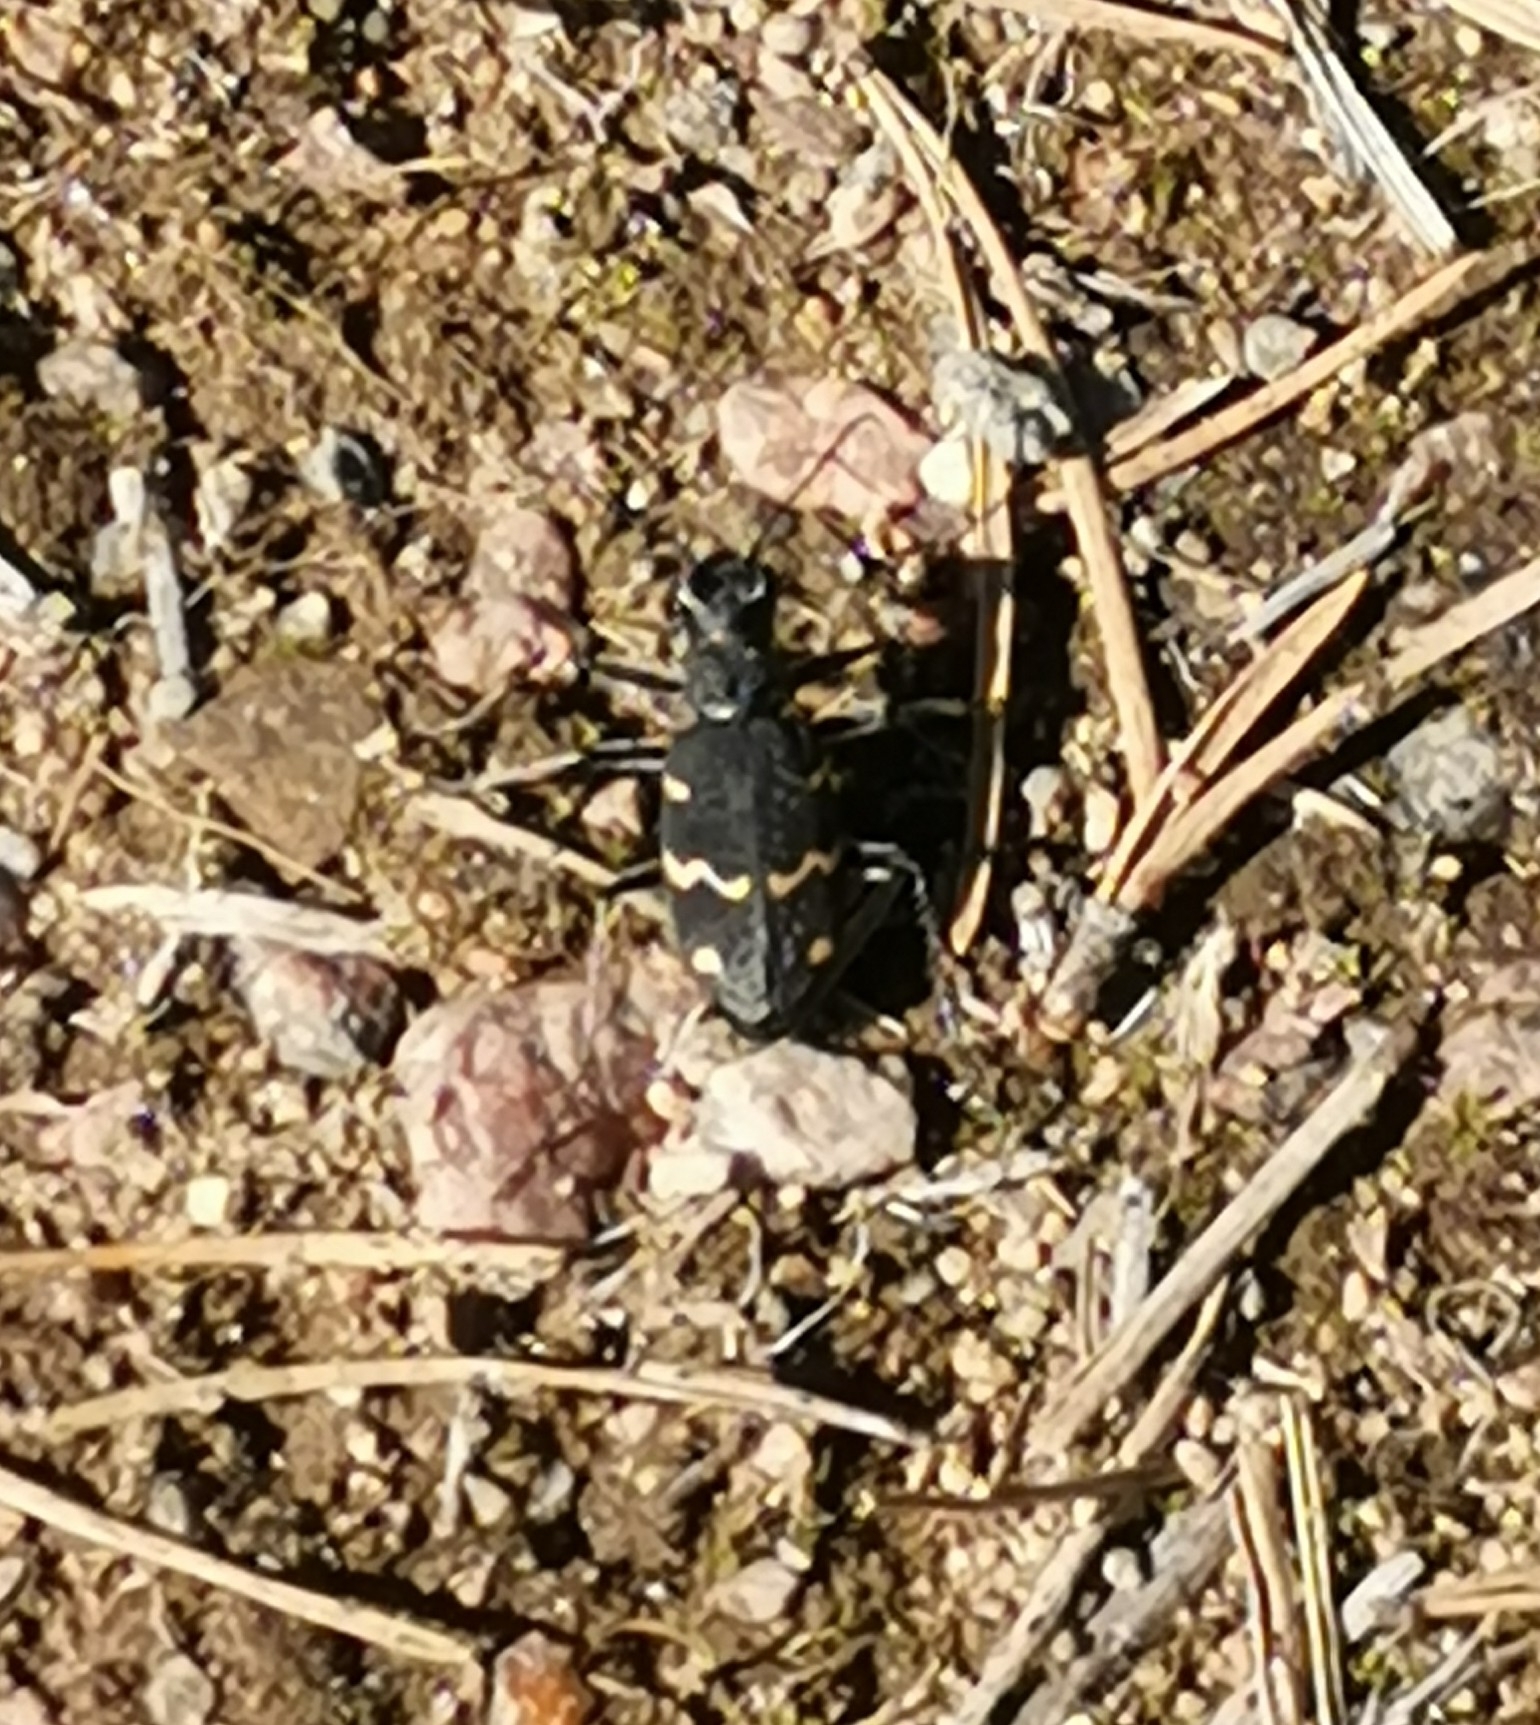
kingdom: Animalia
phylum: Arthropoda
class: Insecta
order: Coleoptera
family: Carabidae
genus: Cicindela
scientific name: Cicindela sylvatica
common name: Heath tiger beetle
